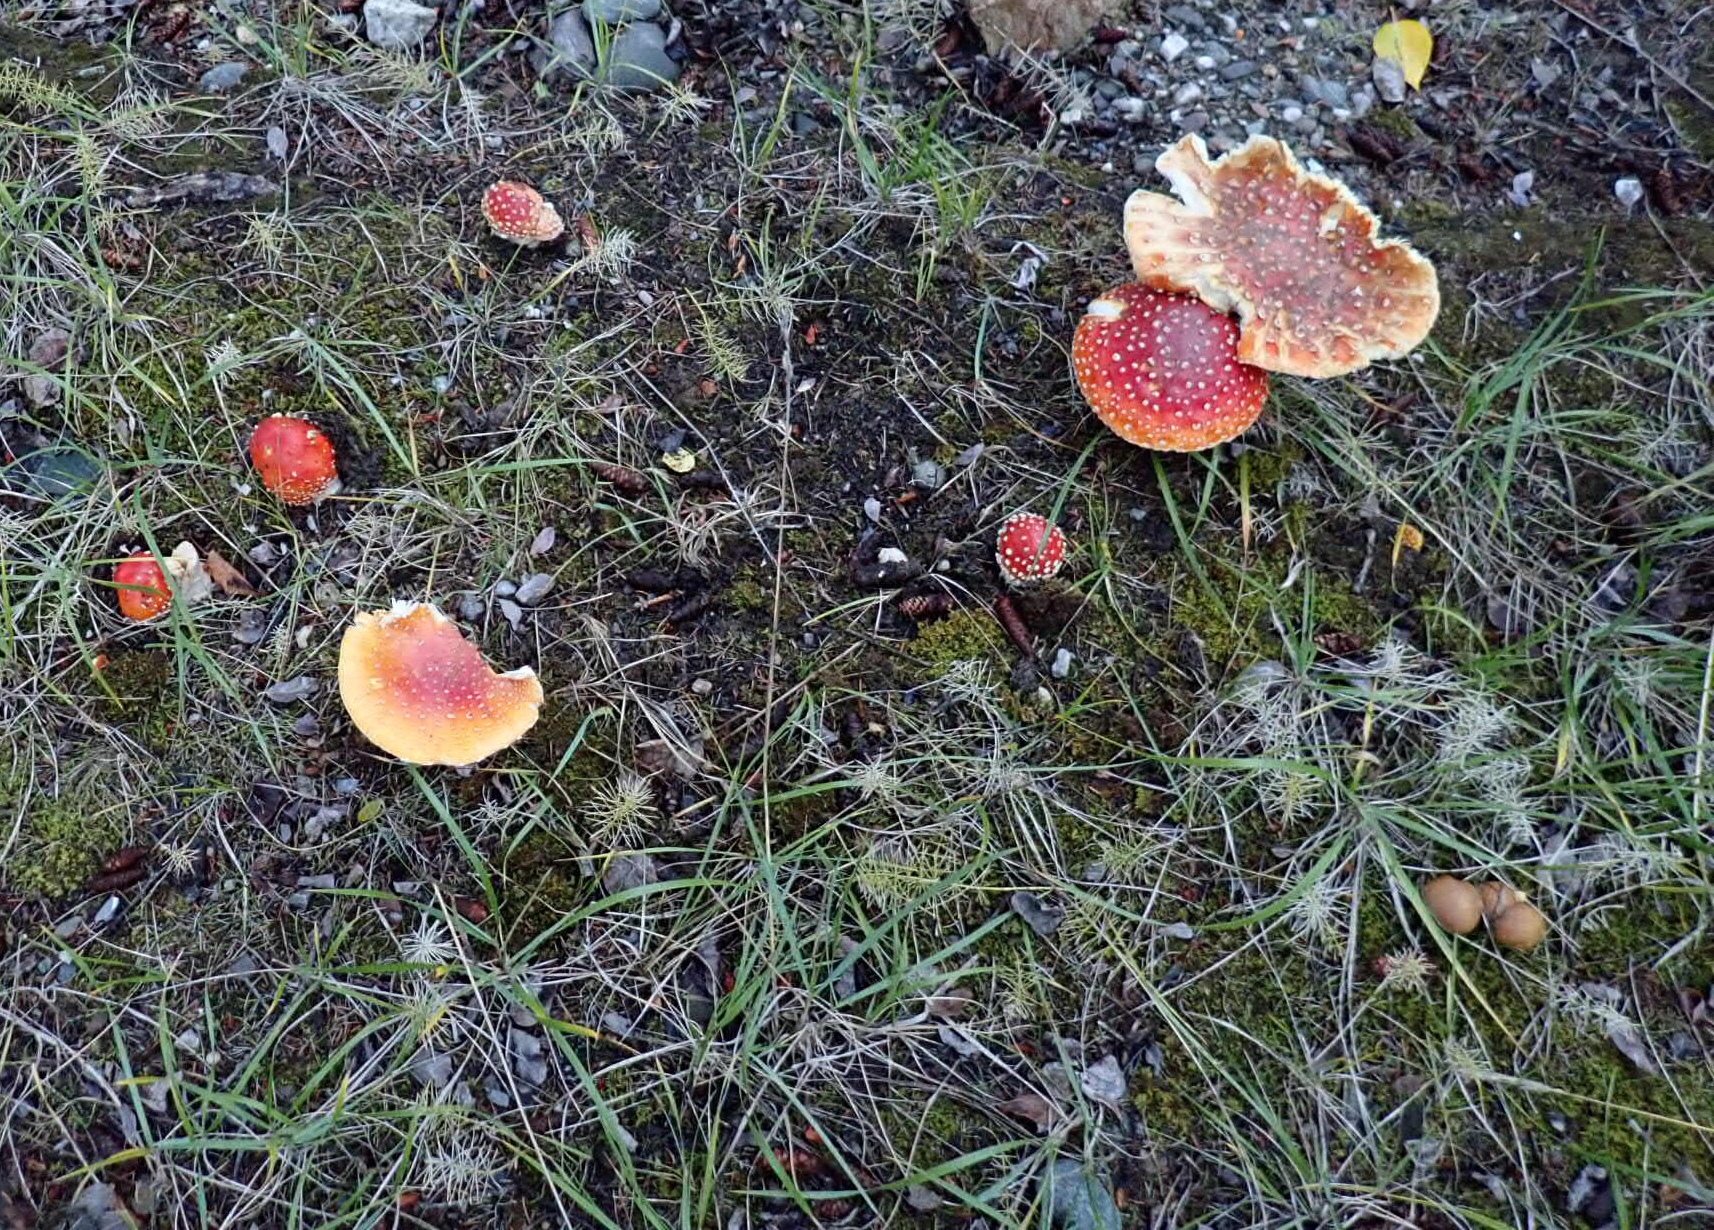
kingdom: Fungi
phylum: Basidiomycota
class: Agaricomycetes
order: Agaricales
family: Amanitaceae
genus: Amanita
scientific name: Amanita muscaria
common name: Fly agaric
